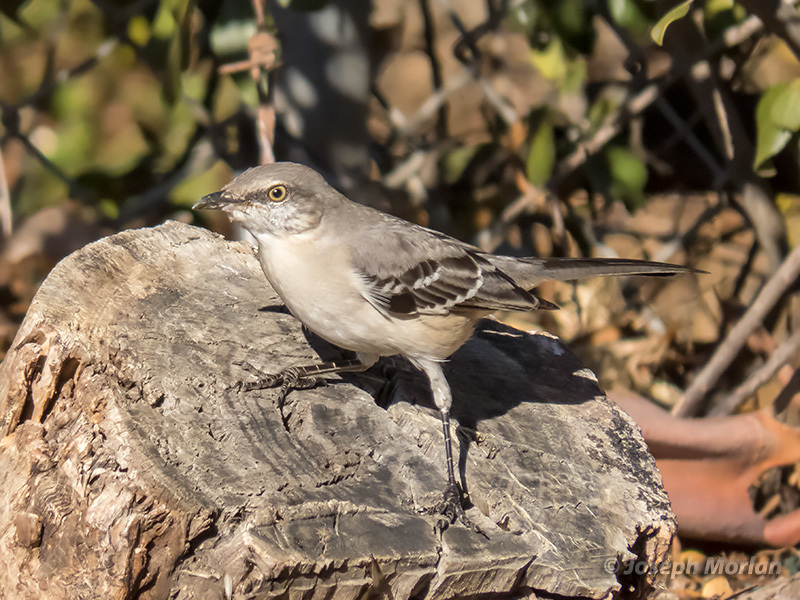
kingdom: Animalia
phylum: Chordata
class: Aves
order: Passeriformes
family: Mimidae
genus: Mimus
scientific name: Mimus polyglottos
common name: Northern mockingbird
